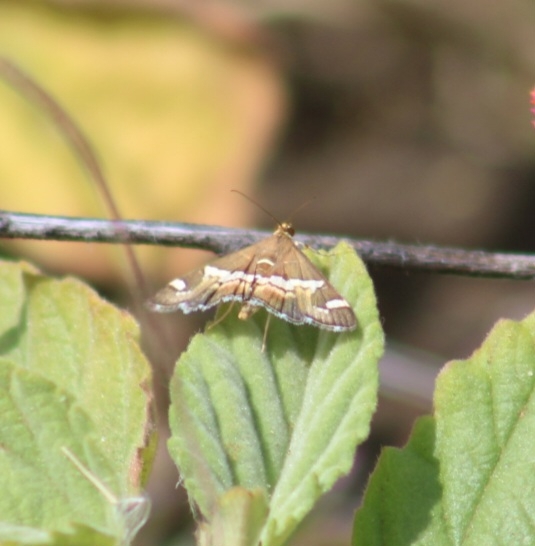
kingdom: Animalia
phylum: Arthropoda
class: Insecta
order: Lepidoptera
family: Crambidae
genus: Spoladea
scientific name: Spoladea recurvalis
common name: Beet webworm moth
